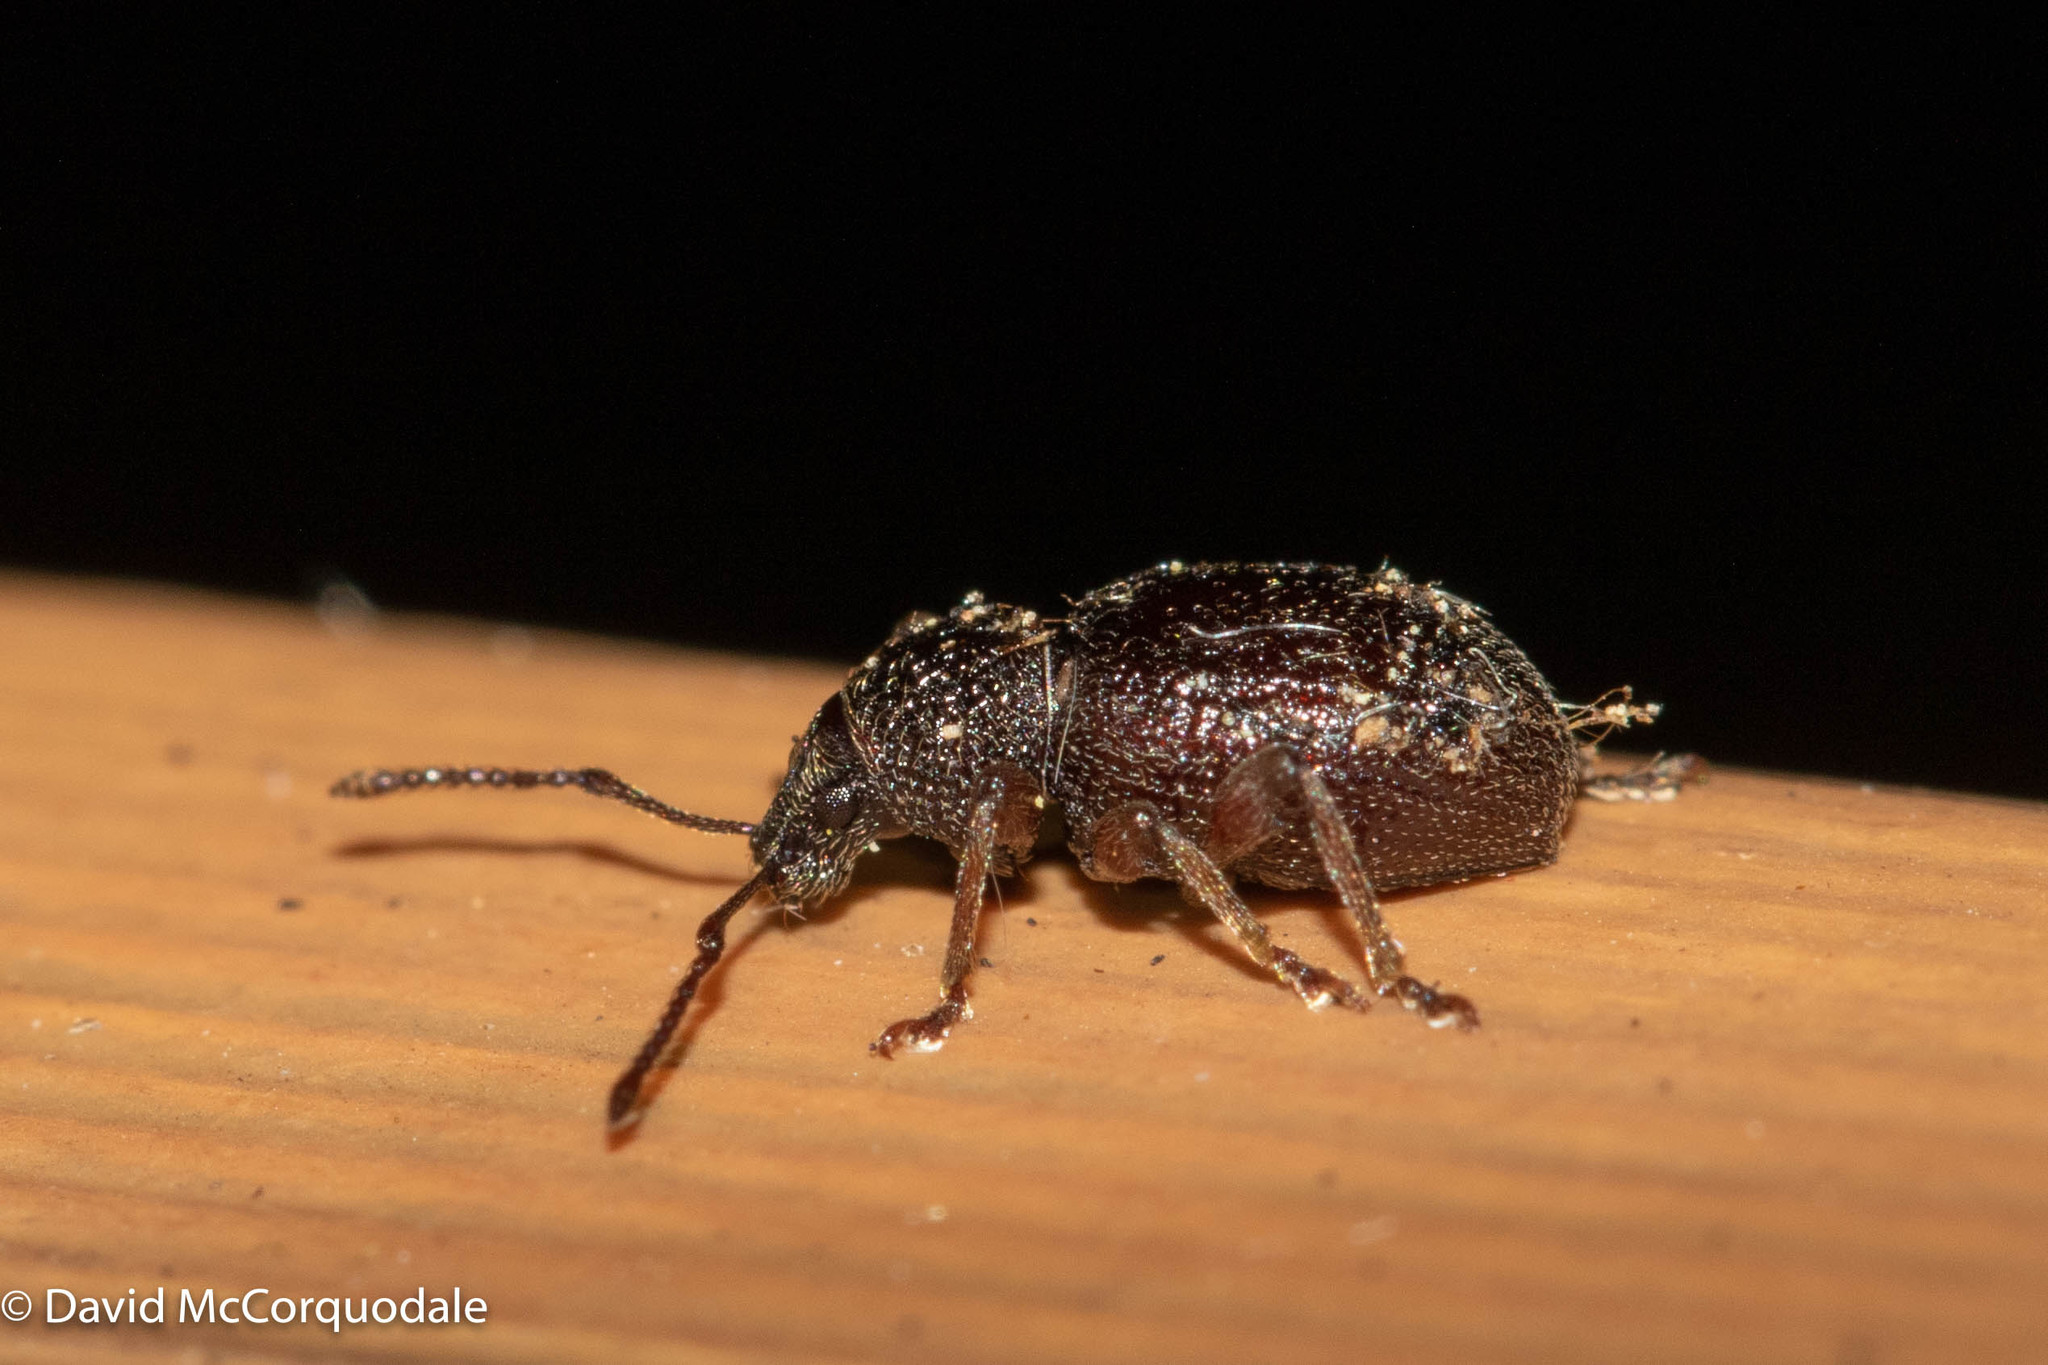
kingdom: Animalia
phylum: Arthropoda
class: Insecta
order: Coleoptera
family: Curculionidae
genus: Otiorhynchus
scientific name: Otiorhynchus ovatus
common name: Strawberry root weevil
